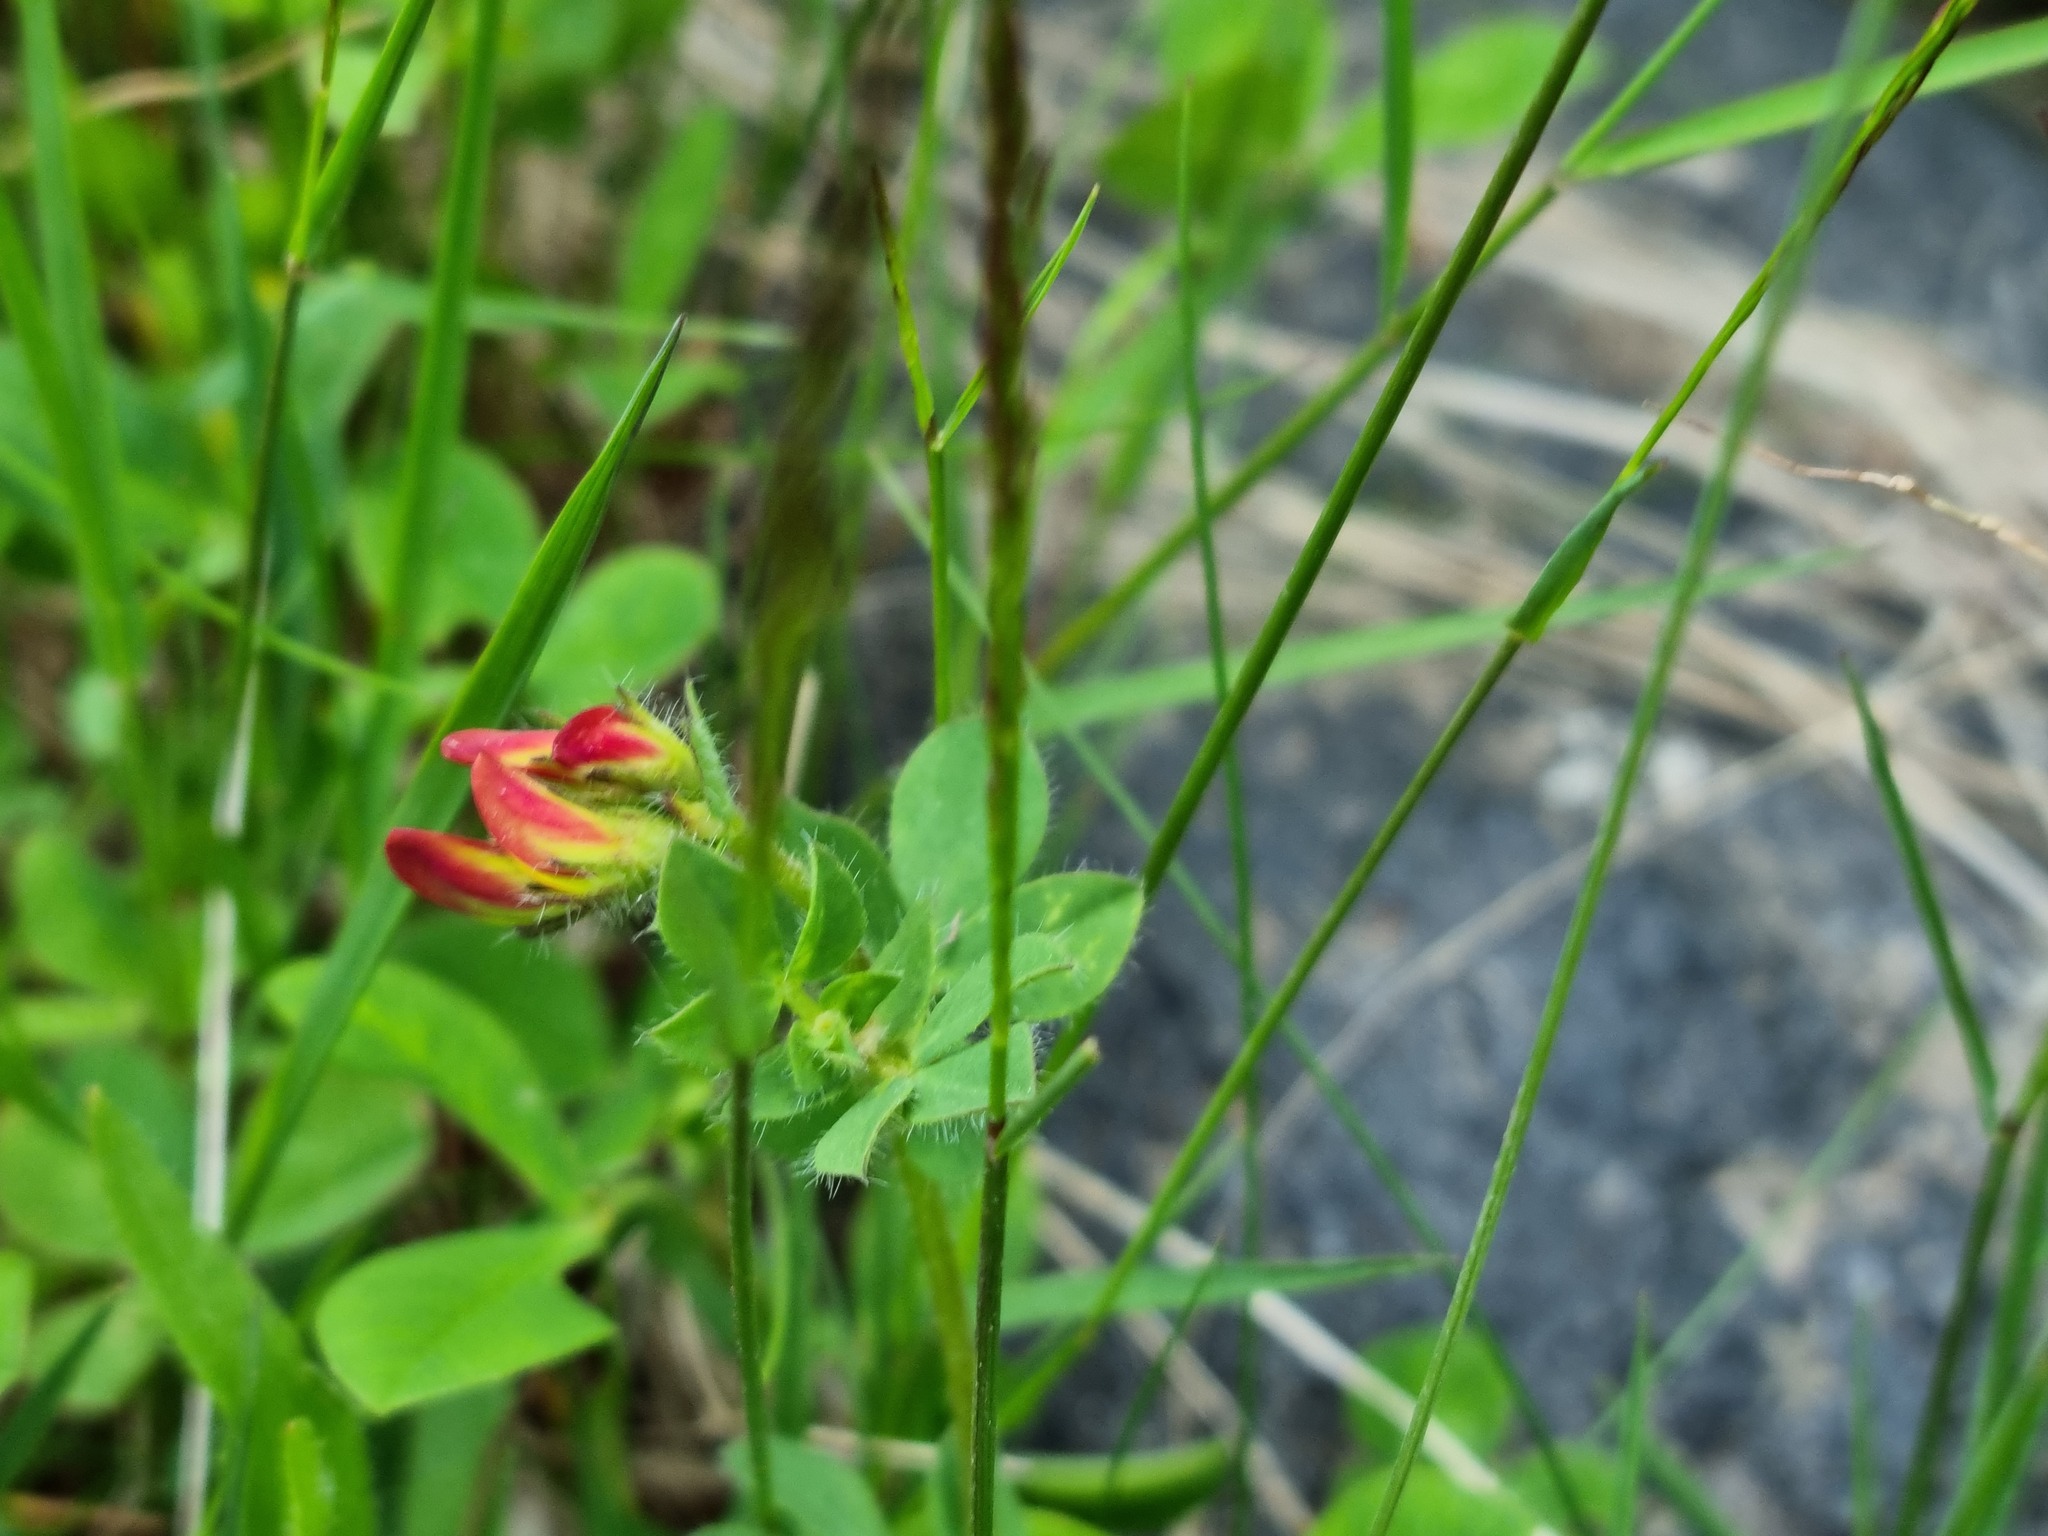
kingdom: Plantae
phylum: Tracheophyta
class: Magnoliopsida
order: Fabales
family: Fabaceae
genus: Lotus
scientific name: Lotus corniculatus
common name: Common bird's-foot-trefoil
